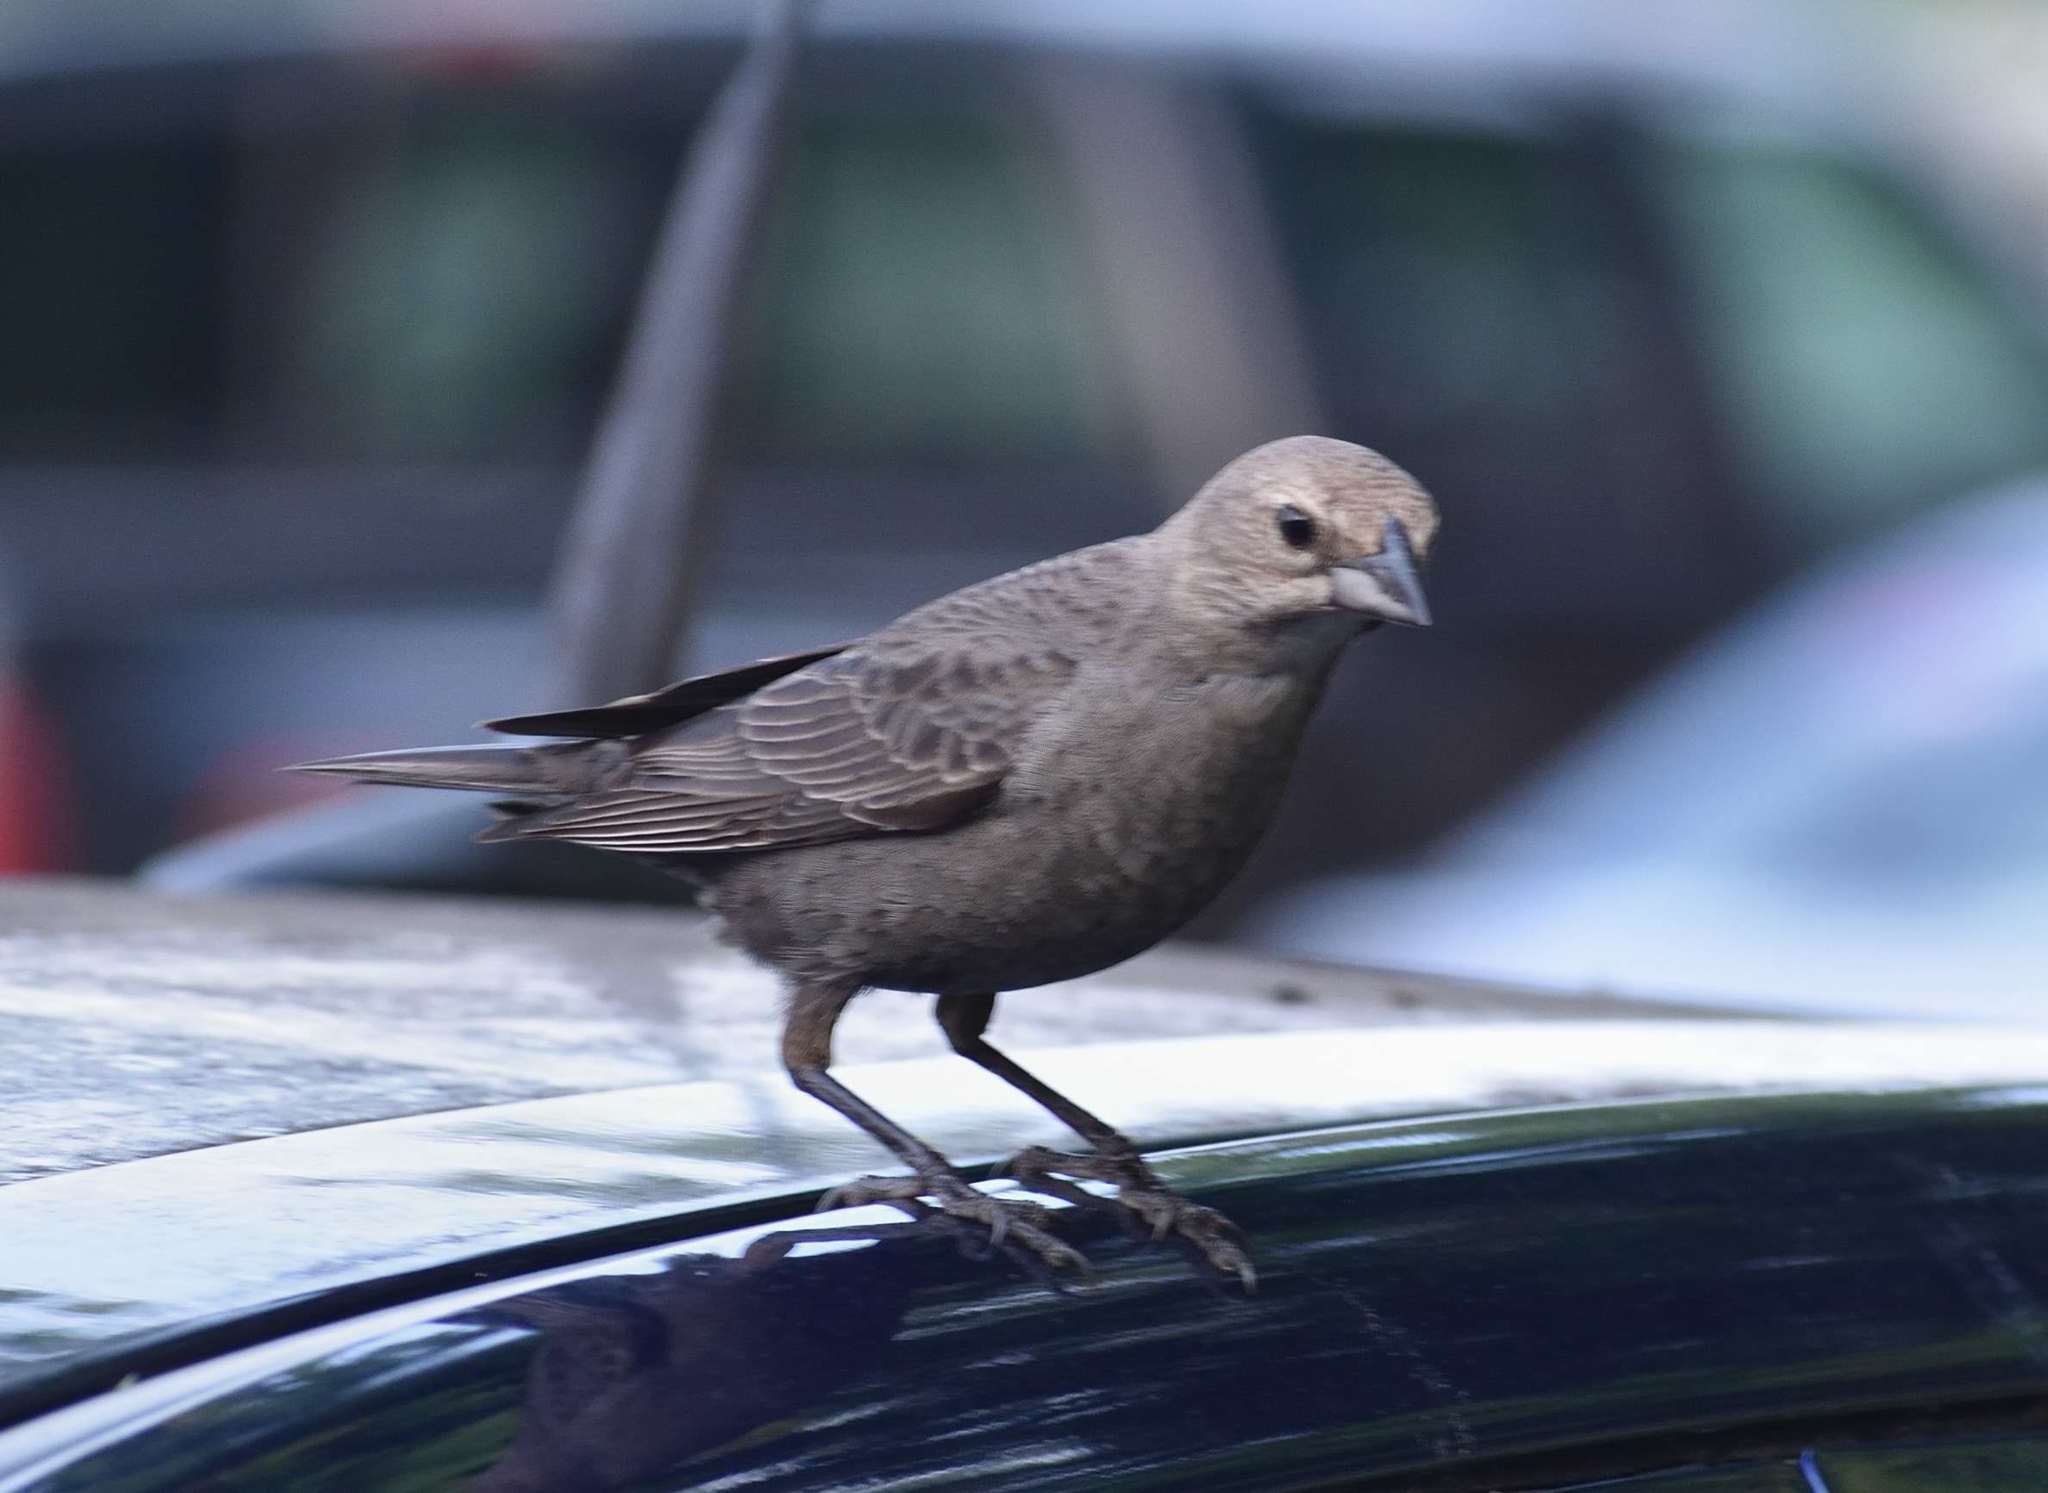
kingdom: Animalia
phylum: Chordata
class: Aves
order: Passeriformes
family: Icteridae
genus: Molothrus
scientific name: Molothrus ater
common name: Brown-headed cowbird
